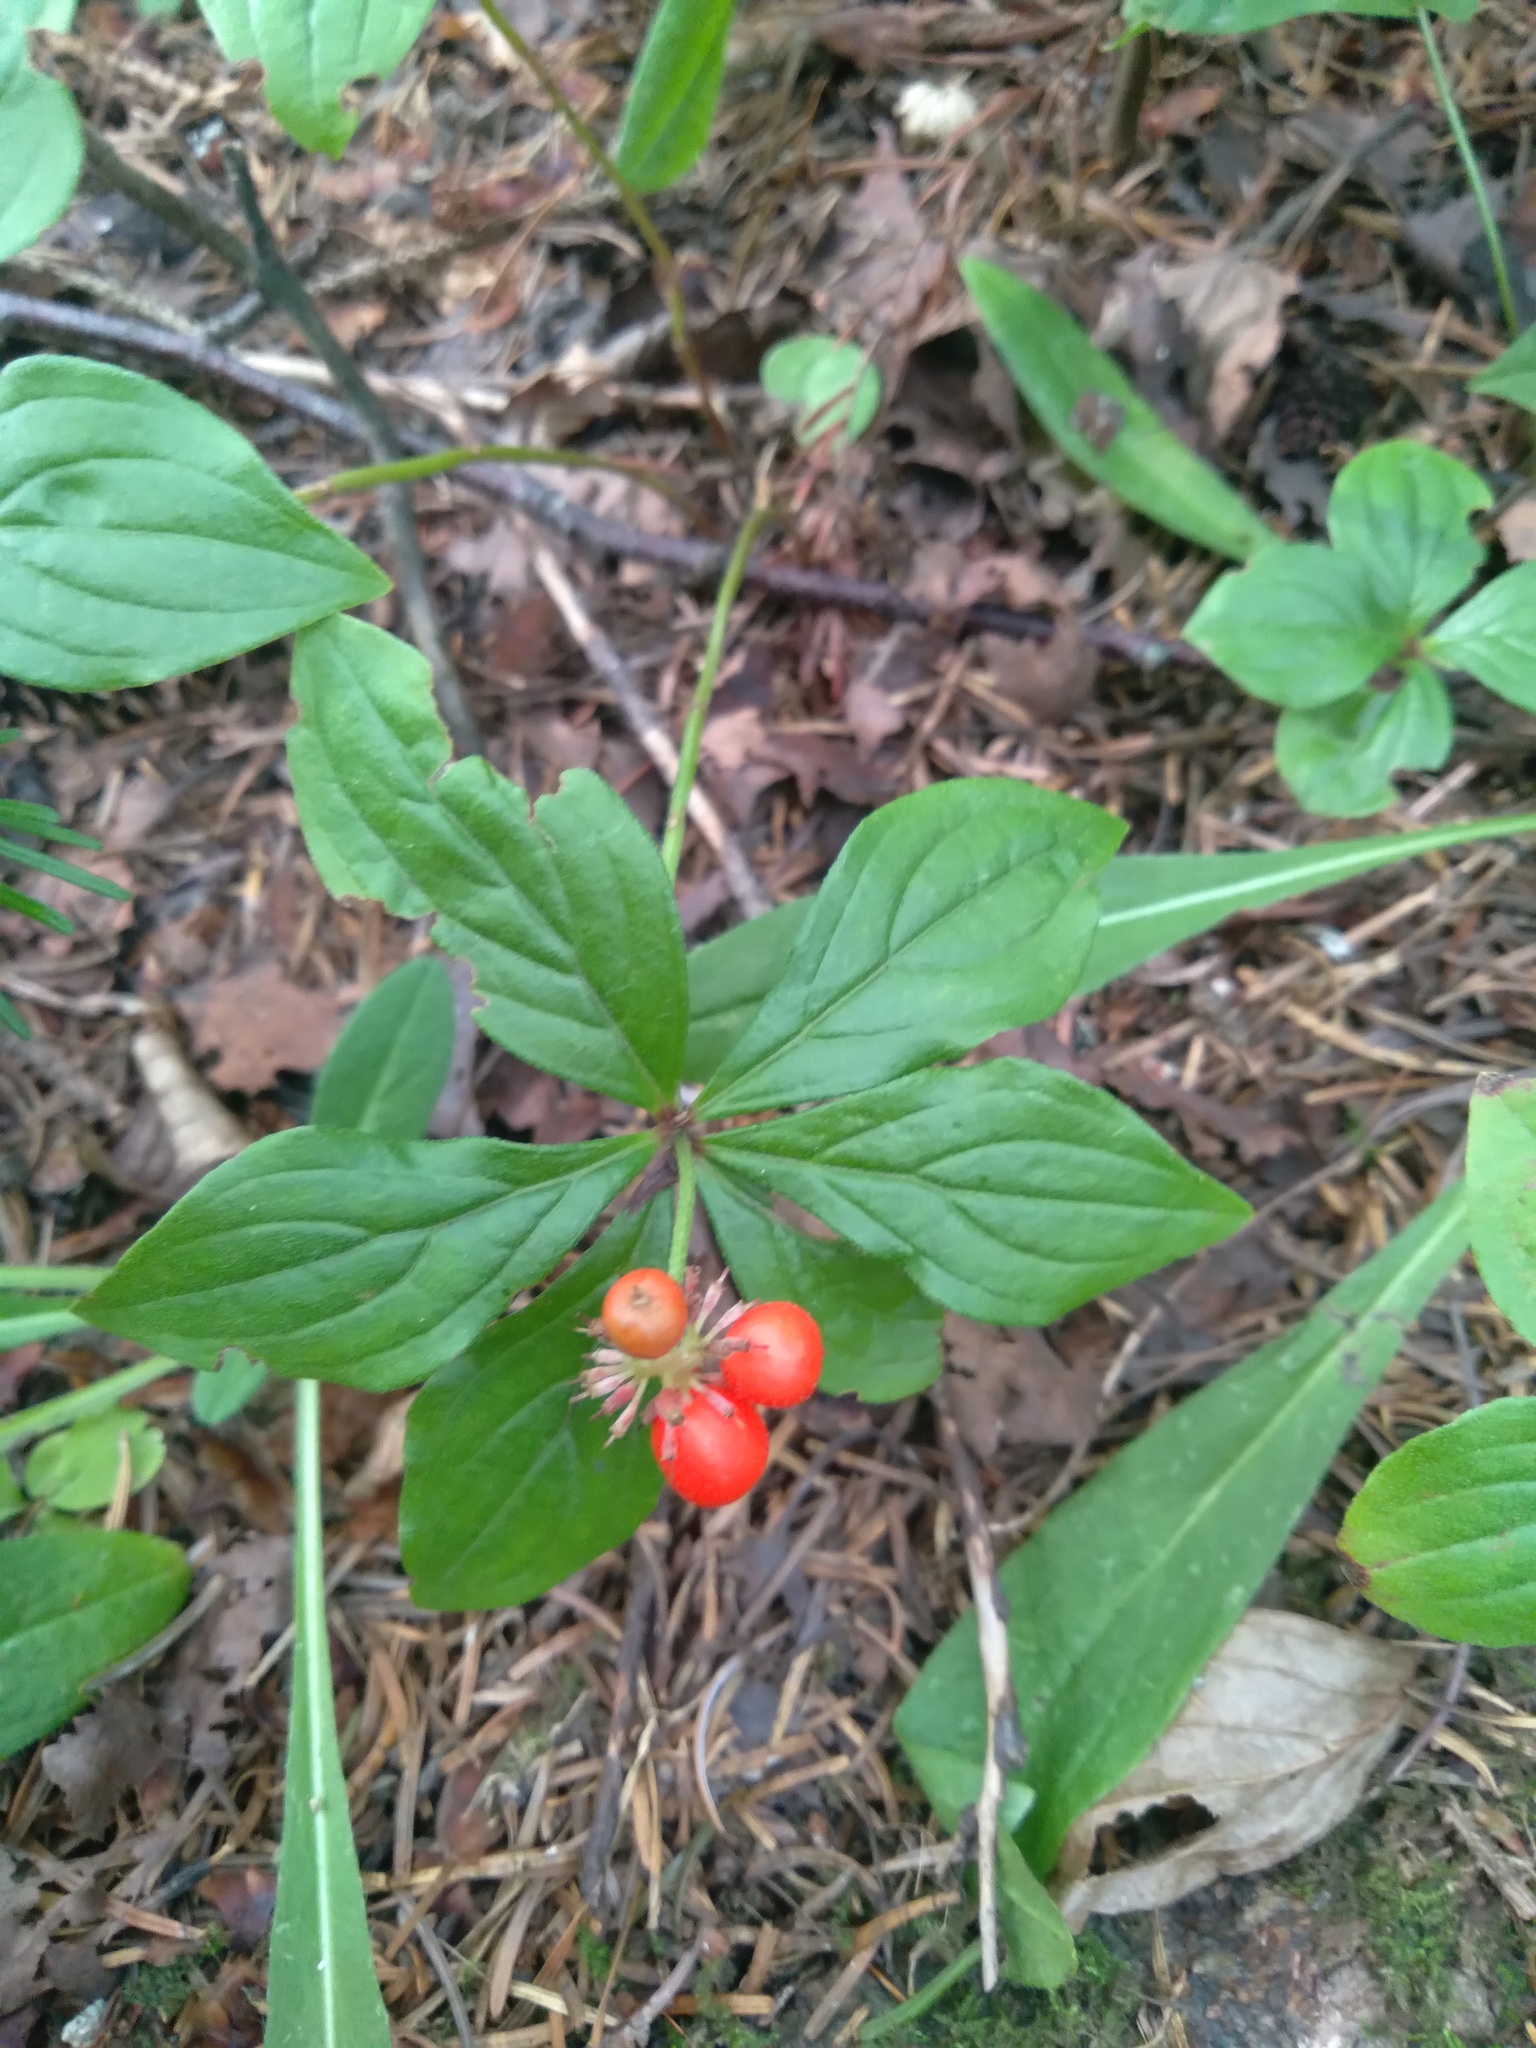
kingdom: Plantae
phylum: Tracheophyta
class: Magnoliopsida
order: Cornales
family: Cornaceae
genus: Cornus
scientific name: Cornus canadensis
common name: Creeping dogwood
